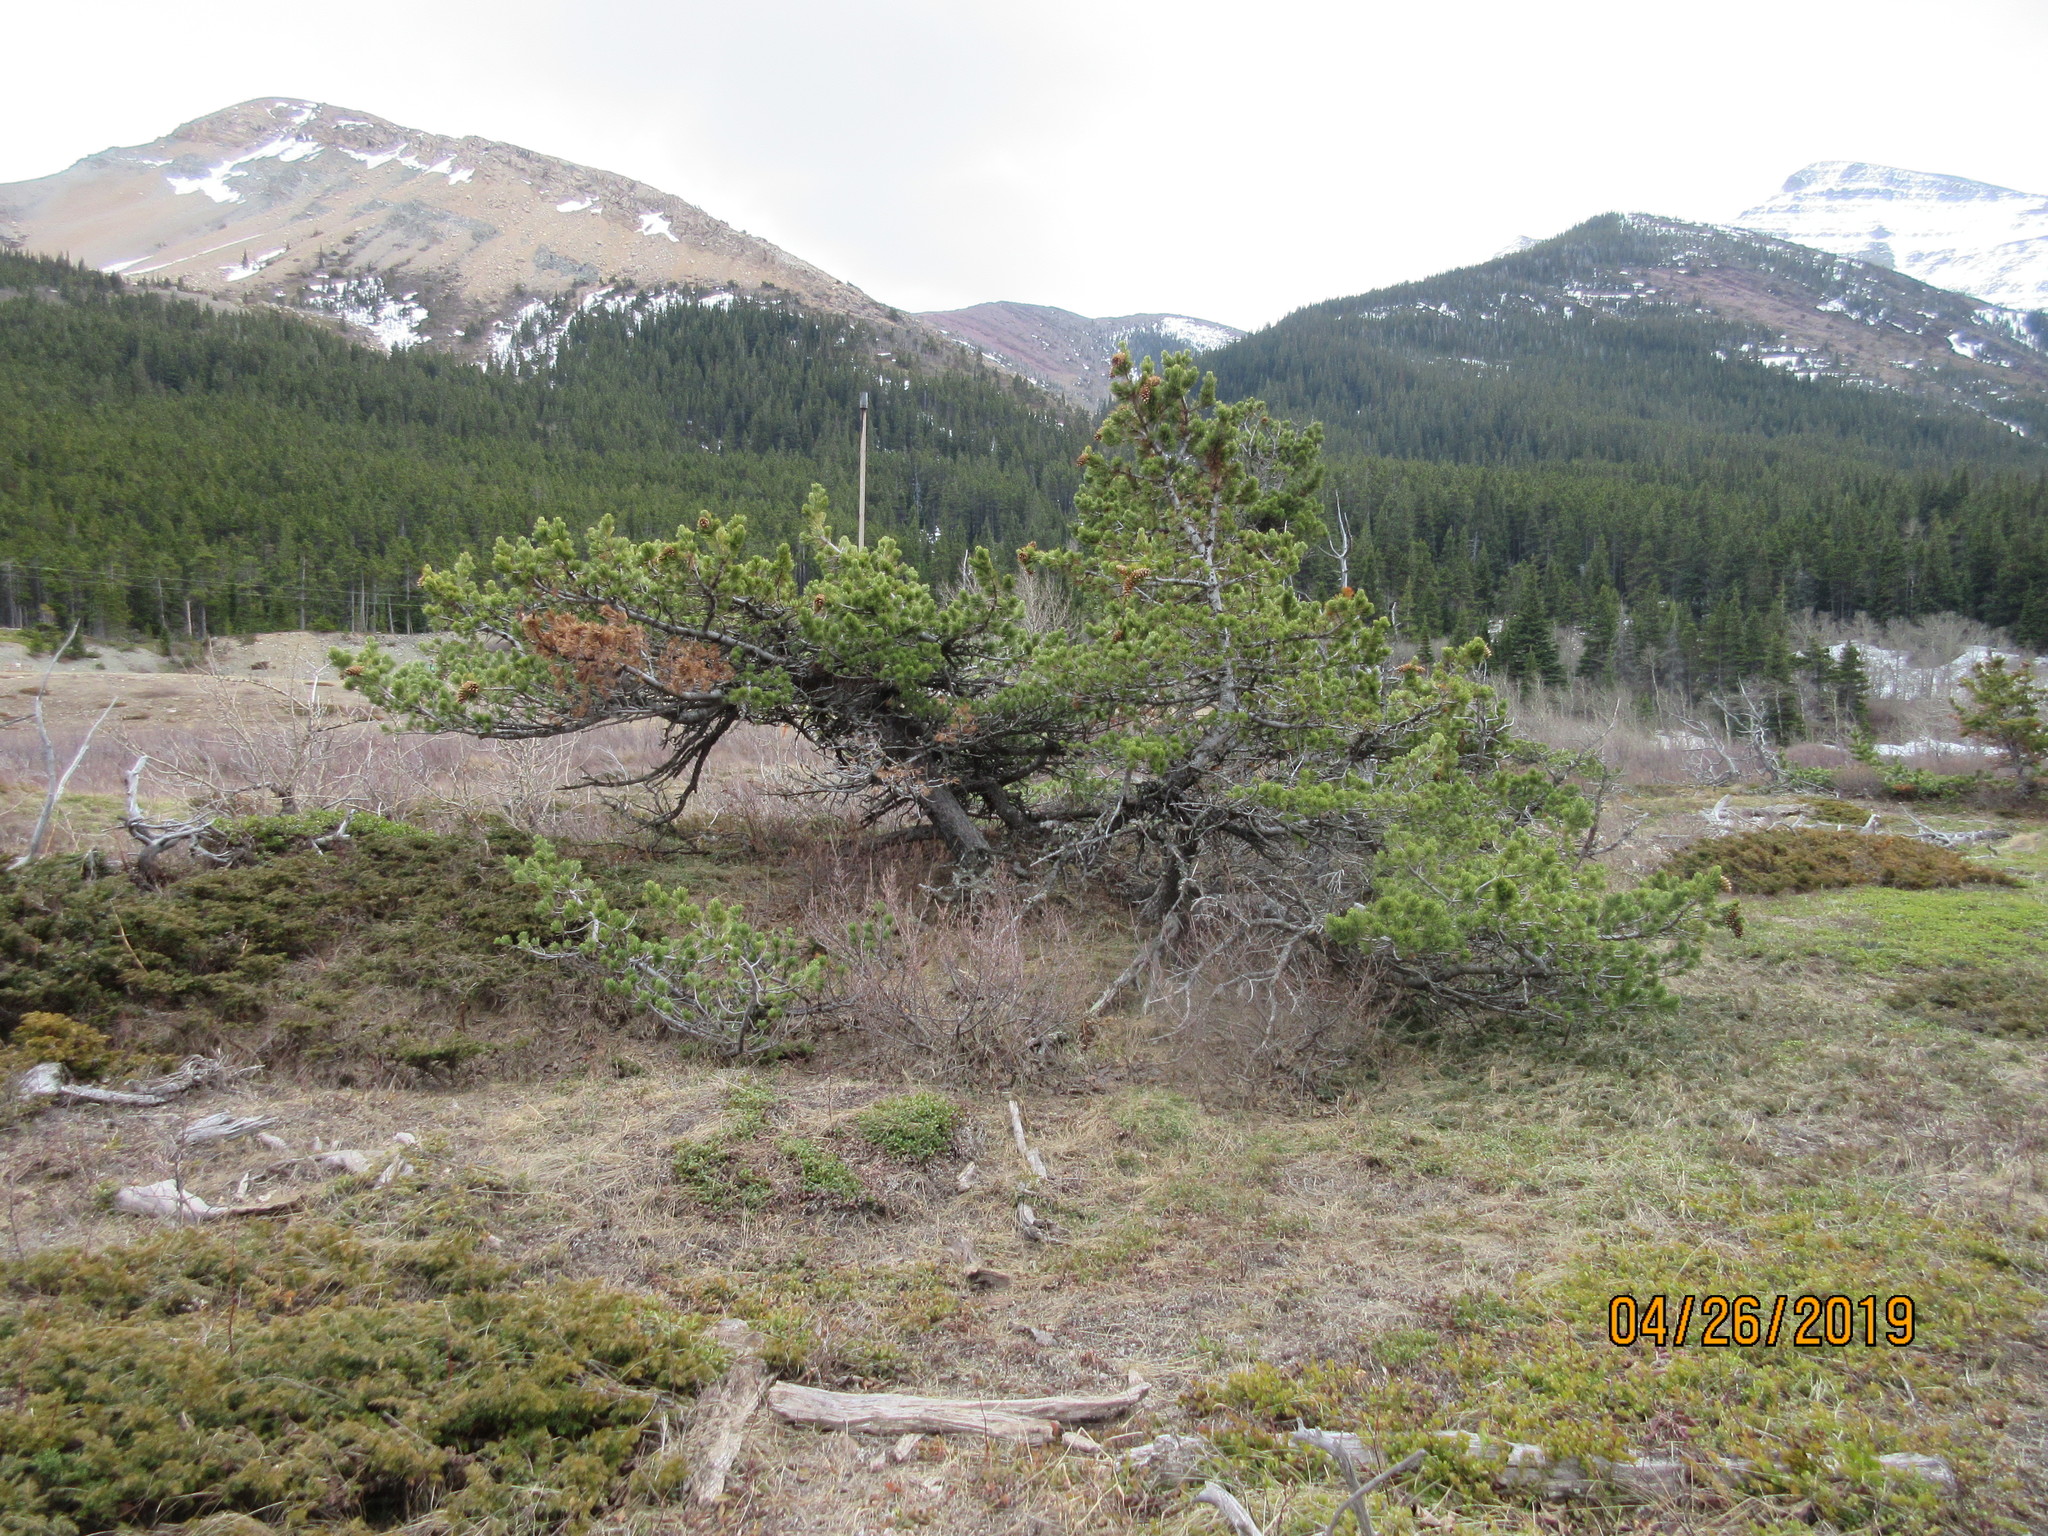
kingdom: Plantae
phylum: Tracheophyta
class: Pinopsida
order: Pinales
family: Pinaceae
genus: Pinus
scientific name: Pinus flexilis
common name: Limber pine
